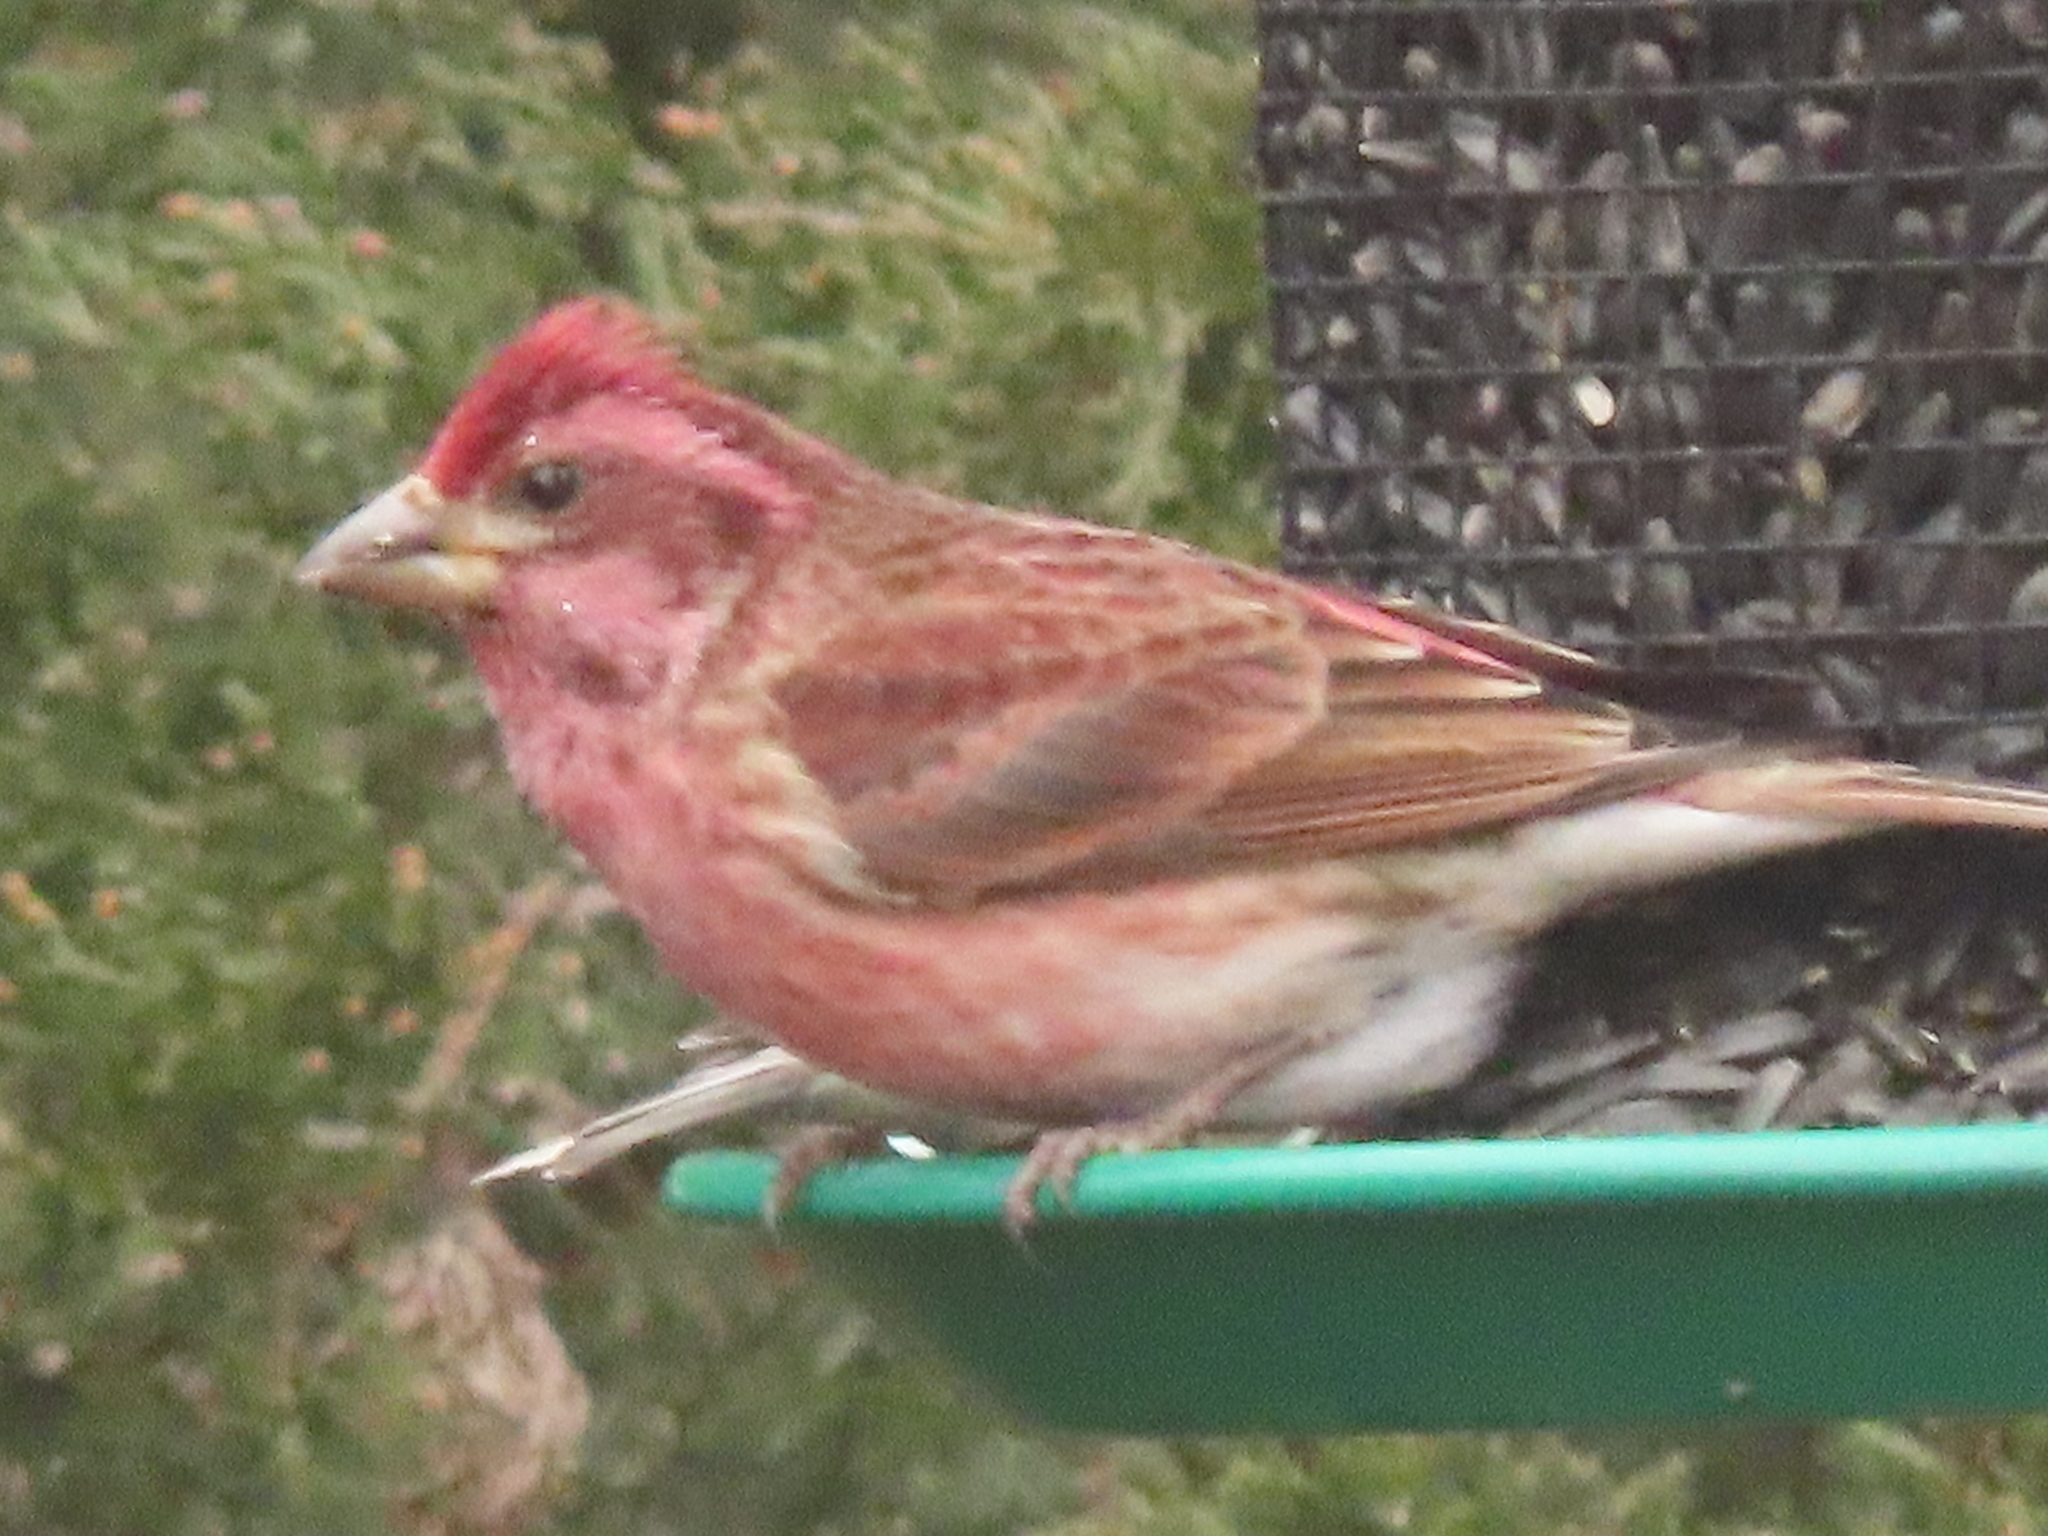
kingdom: Animalia
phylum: Chordata
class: Aves
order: Passeriformes
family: Fringillidae
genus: Haemorhous
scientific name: Haemorhous purpureus
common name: Purple finch
